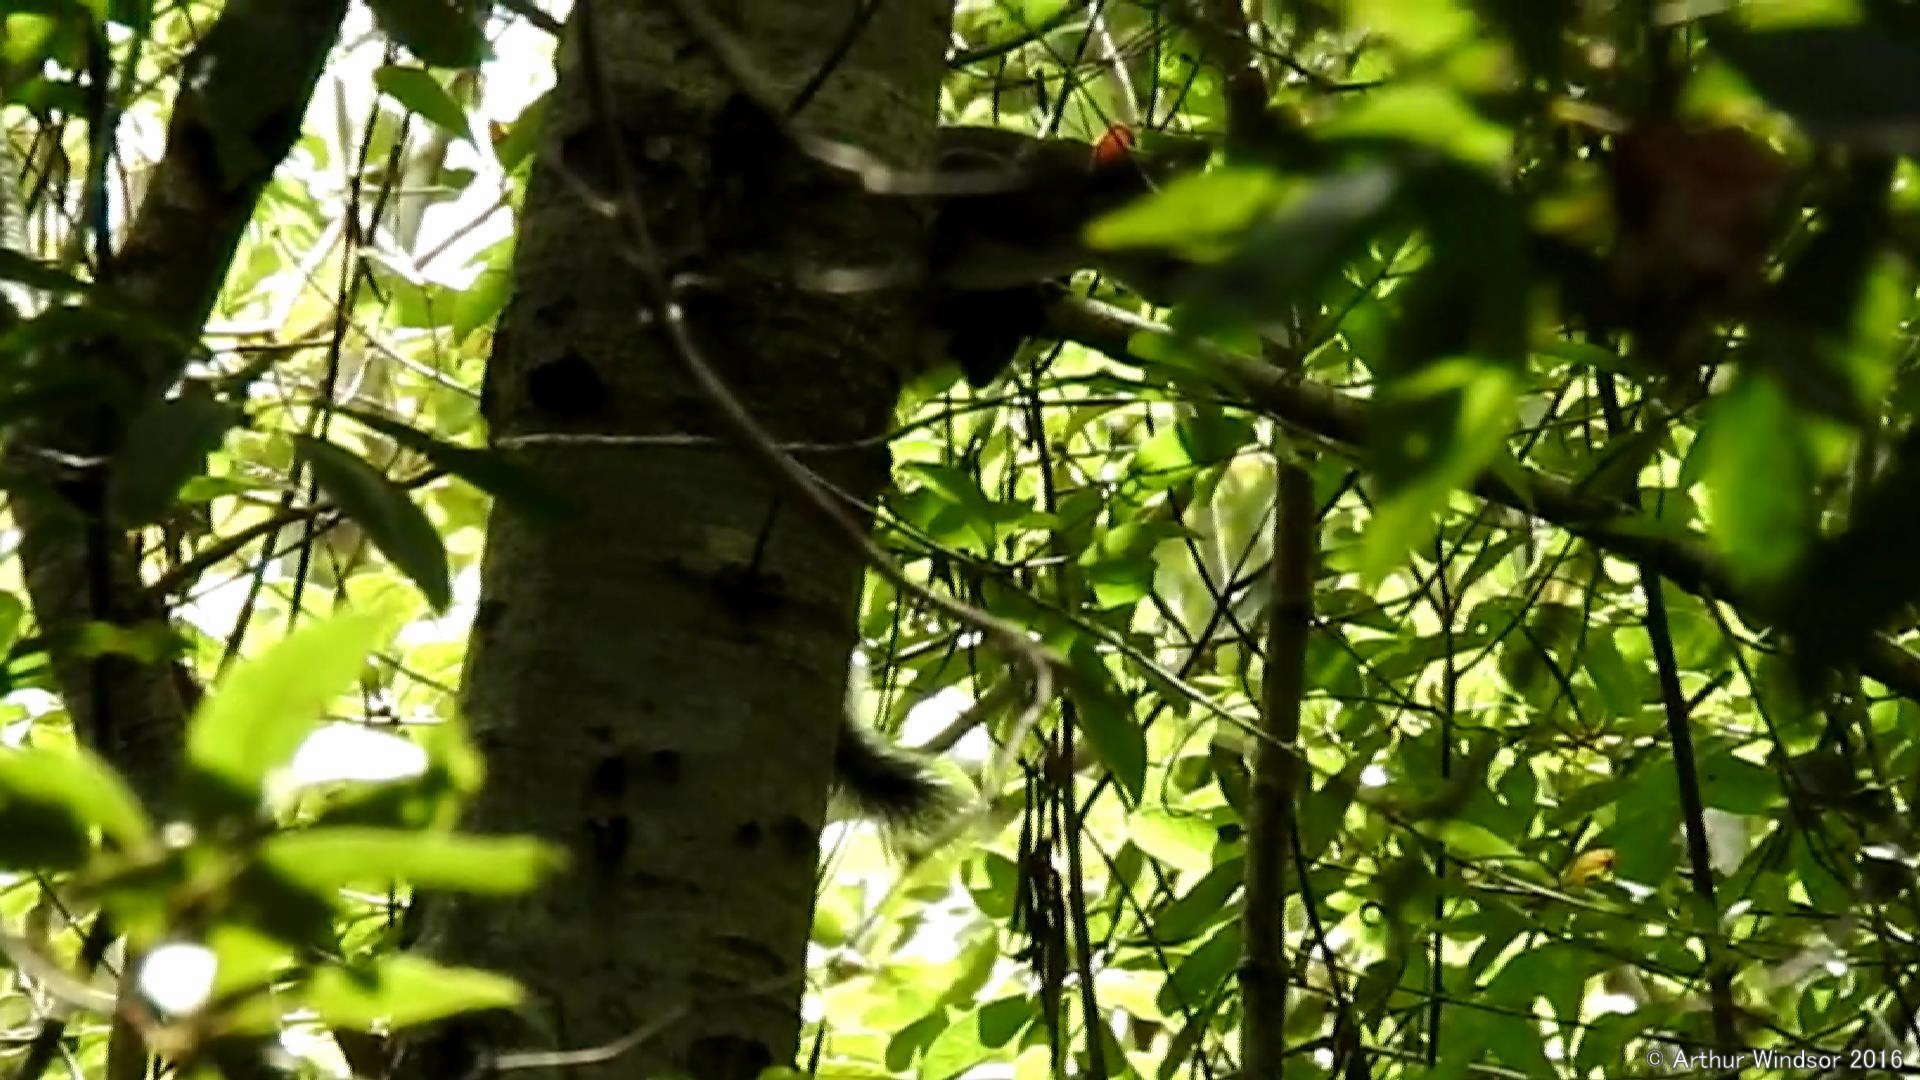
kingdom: Animalia
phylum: Chordata
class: Mammalia
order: Rodentia
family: Sciuridae
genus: Sciurus
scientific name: Sciurus carolinensis
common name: Eastern gray squirrel
